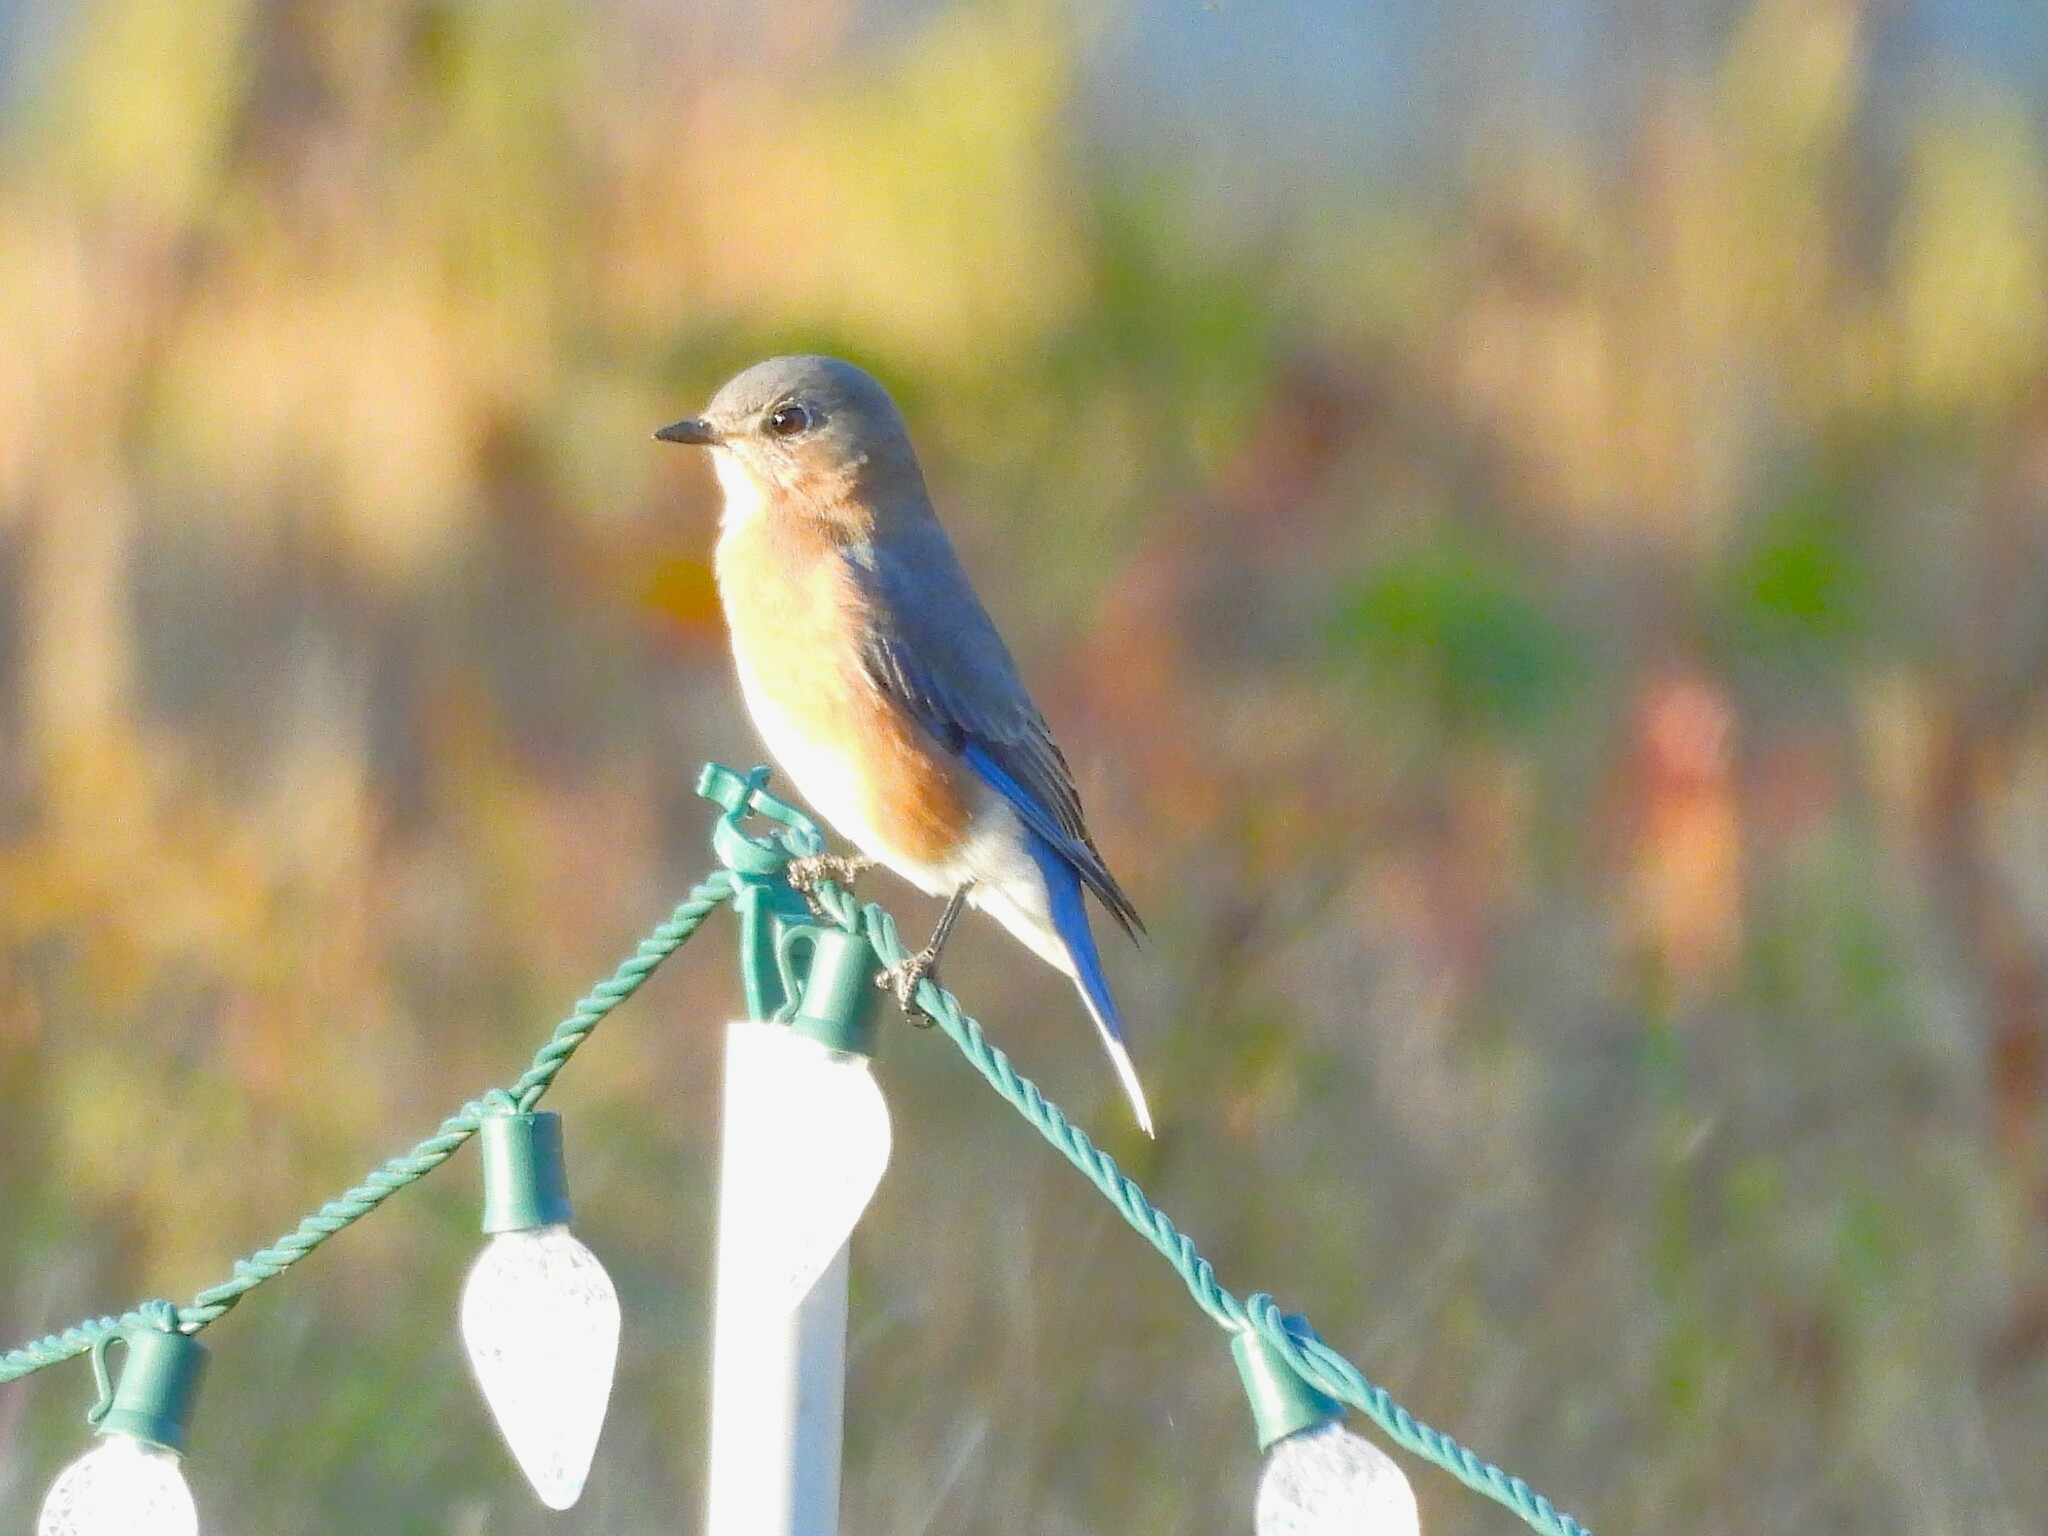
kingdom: Animalia
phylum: Chordata
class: Aves
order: Passeriformes
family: Turdidae
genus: Sialia
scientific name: Sialia sialis
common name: Eastern bluebird
